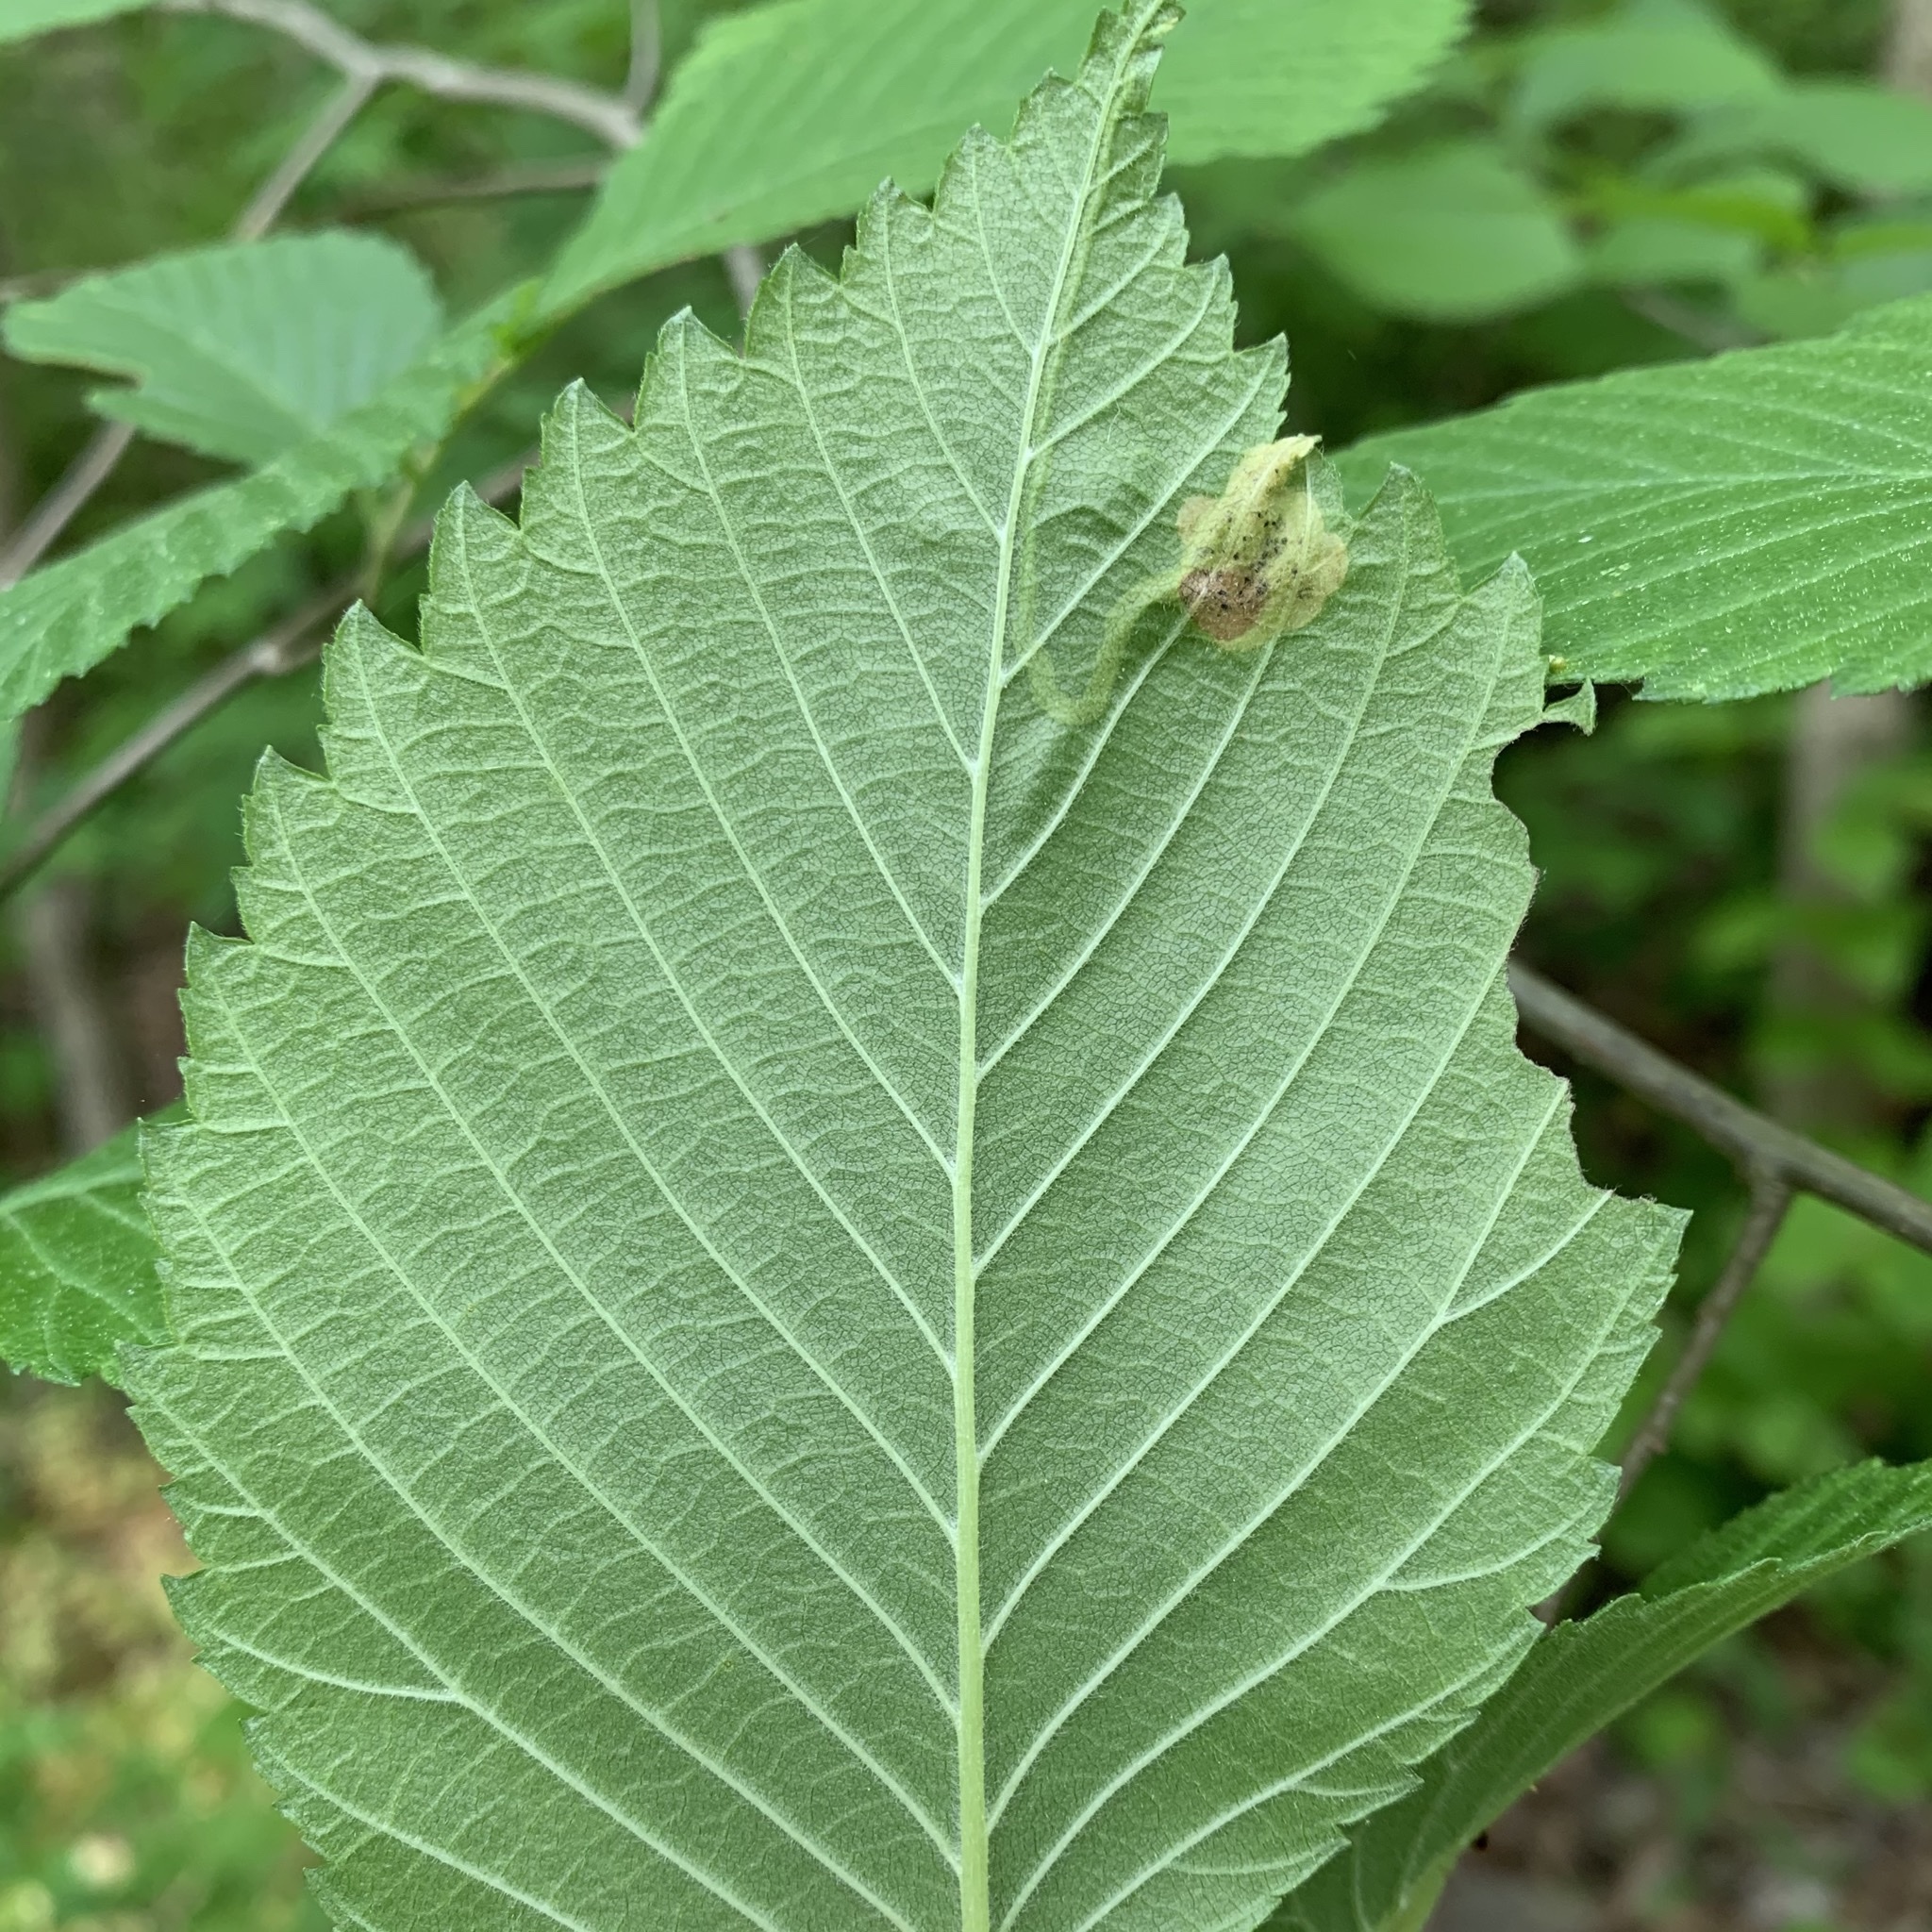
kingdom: Animalia
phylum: Arthropoda
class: Insecta
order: Diptera
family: Agromyzidae
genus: Agromyza
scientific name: Agromyza aristata
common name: Elm agromyzid leafminer
